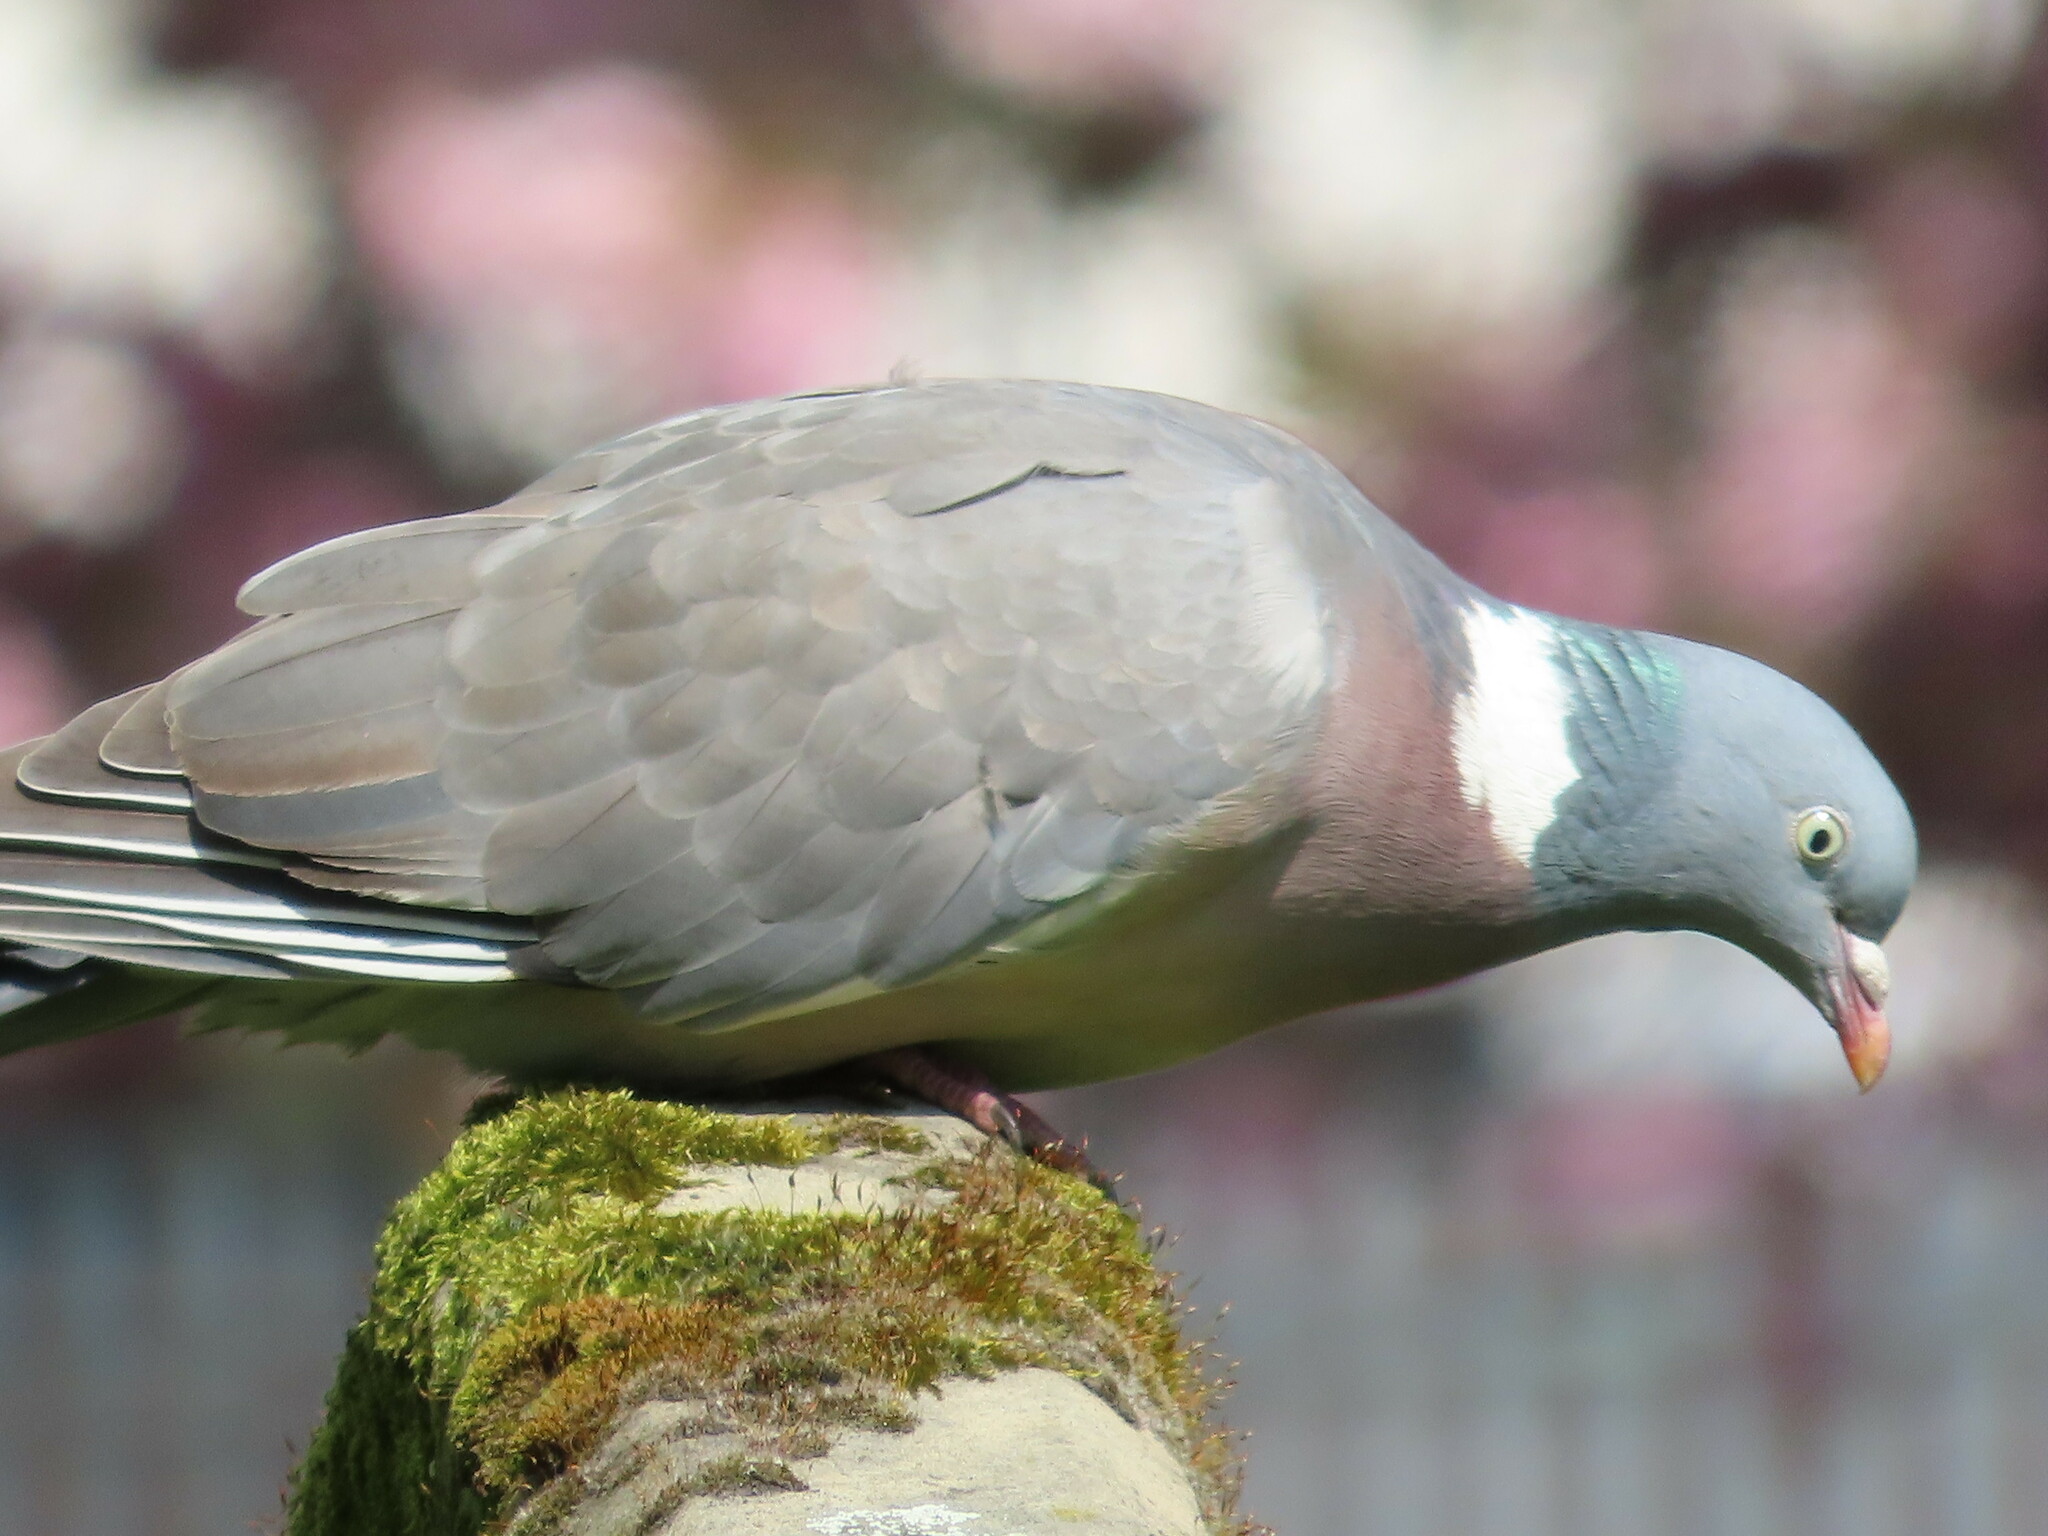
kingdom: Animalia
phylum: Chordata
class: Aves
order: Columbiformes
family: Columbidae
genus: Columba
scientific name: Columba palumbus
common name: Common wood pigeon
